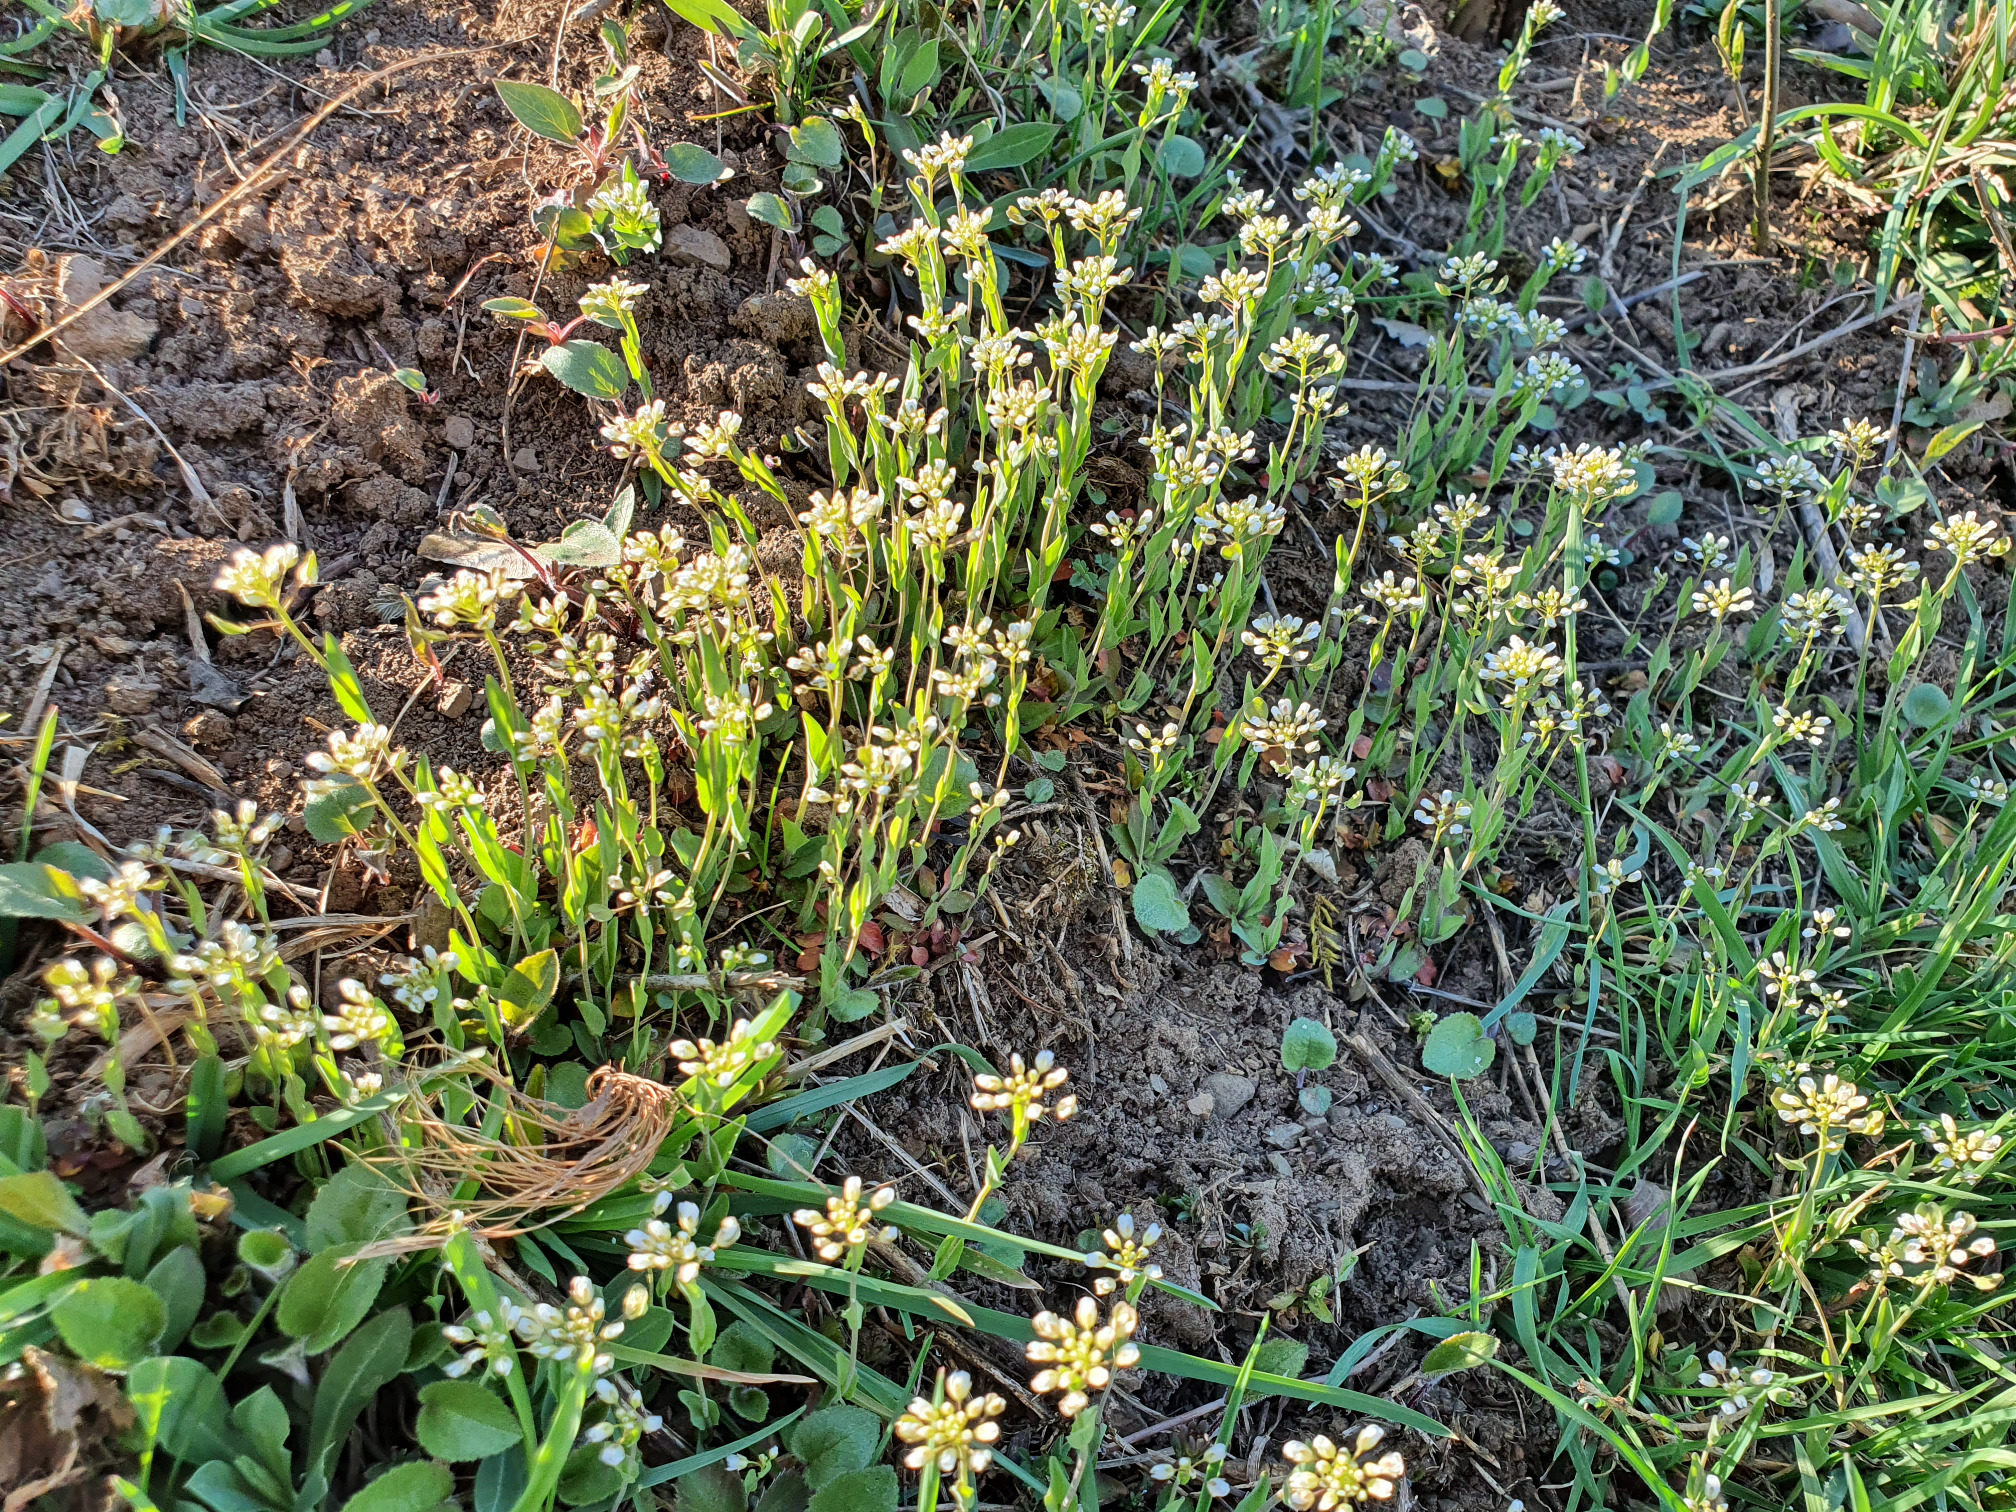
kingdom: Plantae
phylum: Tracheophyta
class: Magnoliopsida
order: Brassicales
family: Brassicaceae
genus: Noccaea
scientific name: Noccaea perfoliata
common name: Perfoliate pennycress
